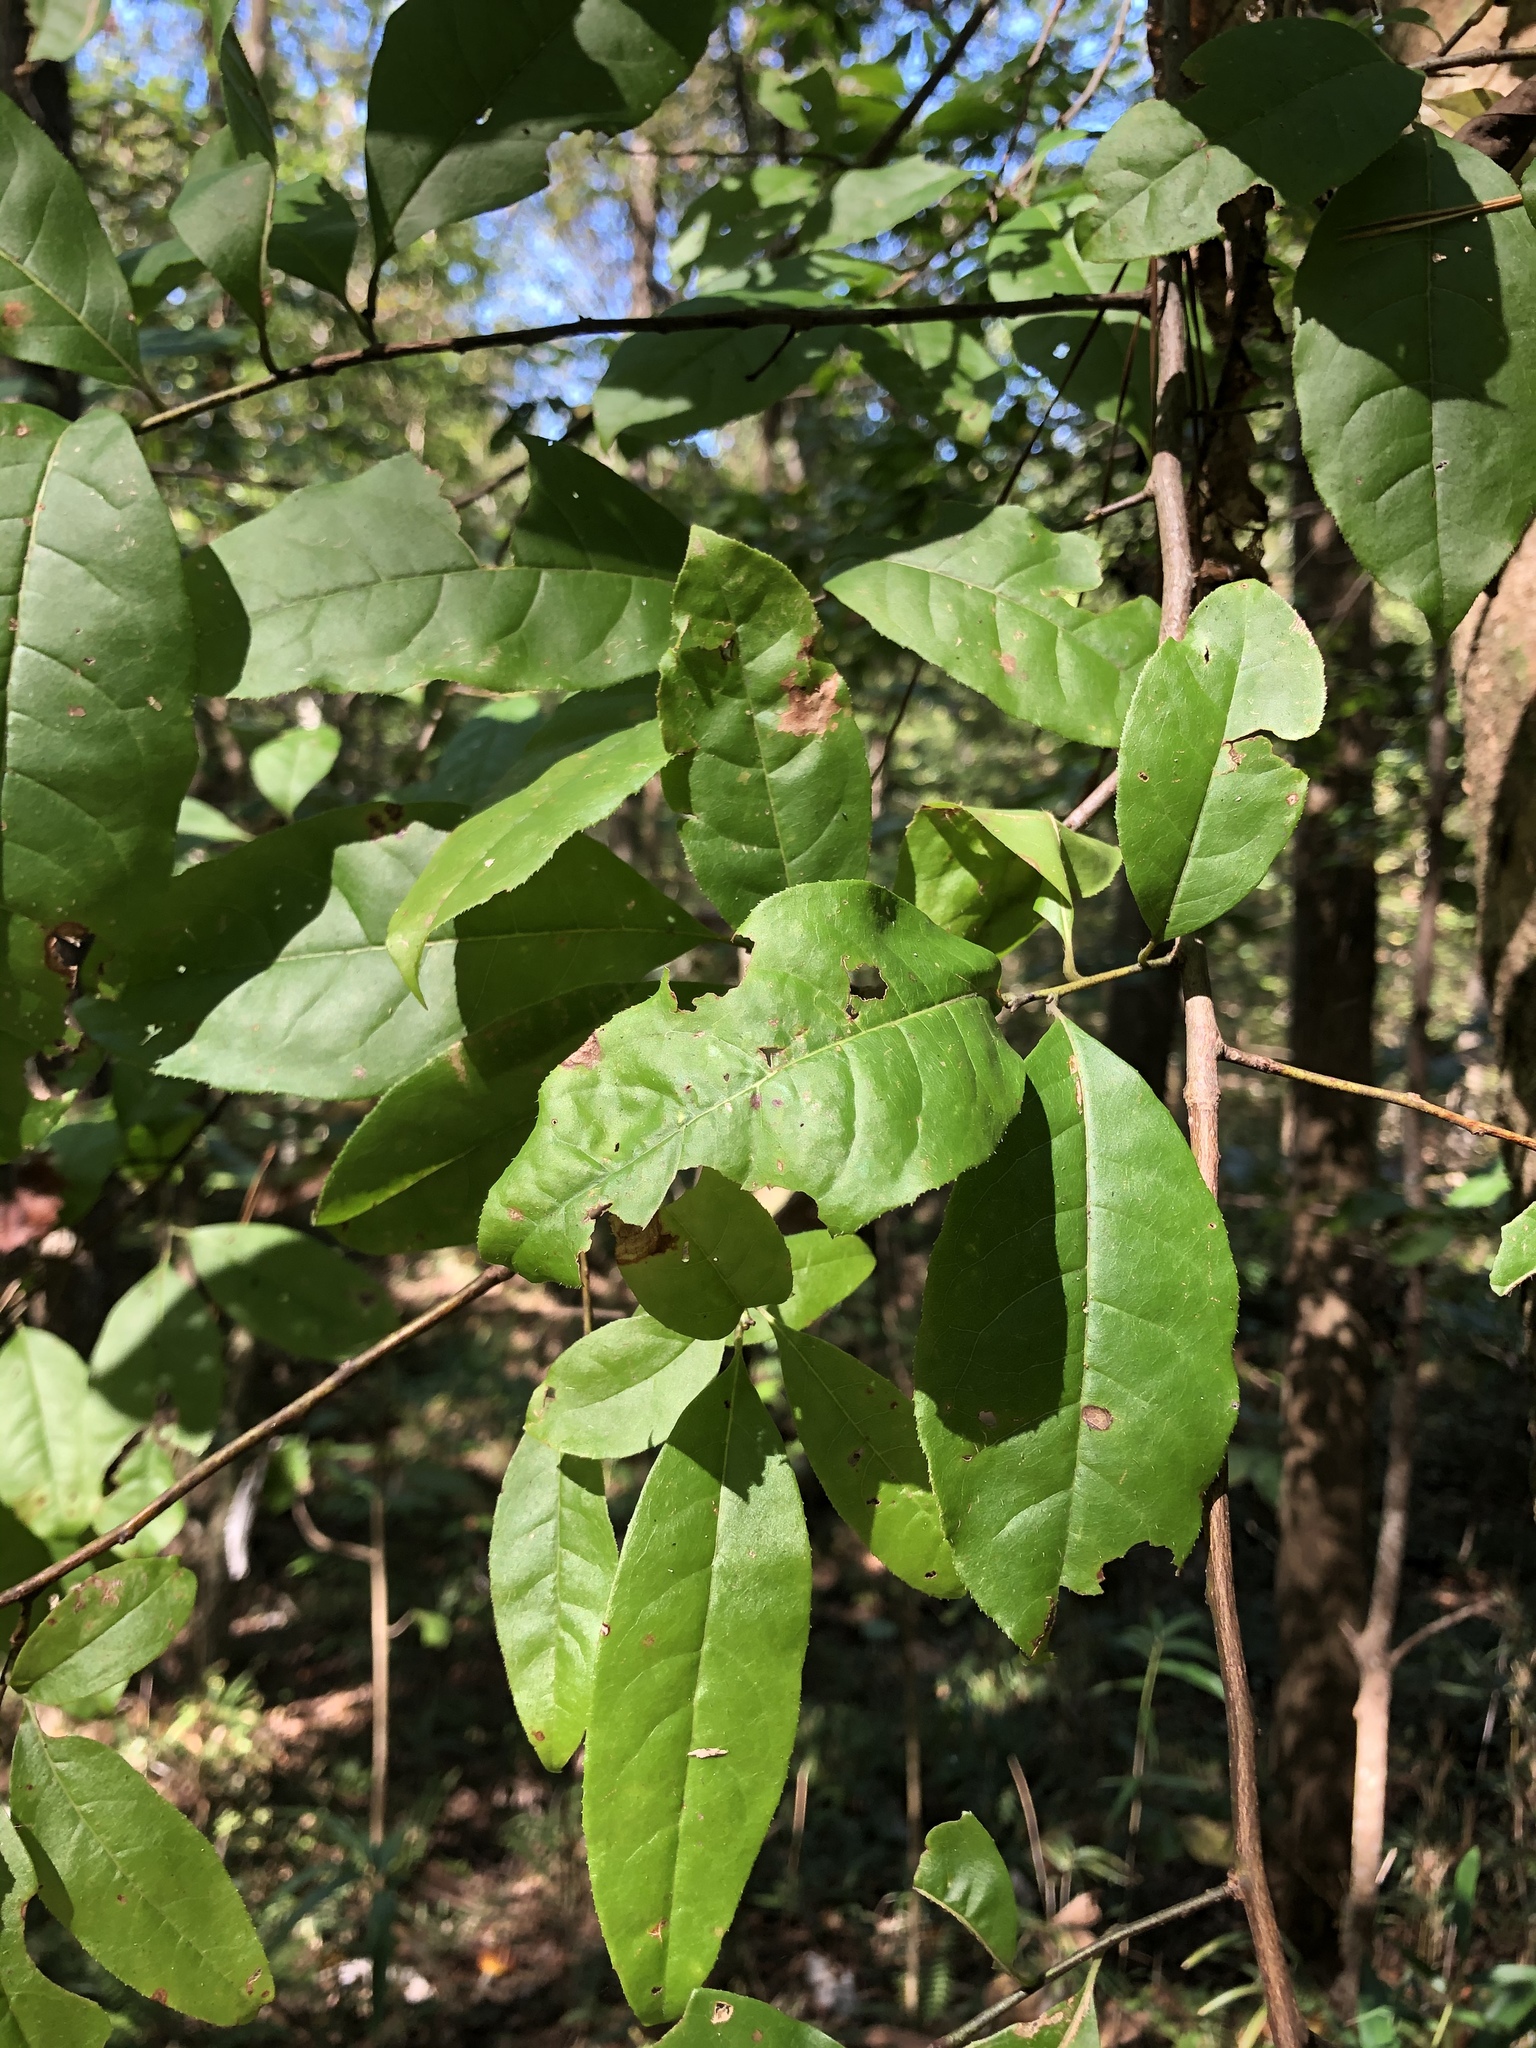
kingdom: Plantae
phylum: Tracheophyta
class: Magnoliopsida
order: Ericales
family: Ericaceae
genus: Oxydendrum
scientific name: Oxydendrum arboreum
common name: Sourwood
